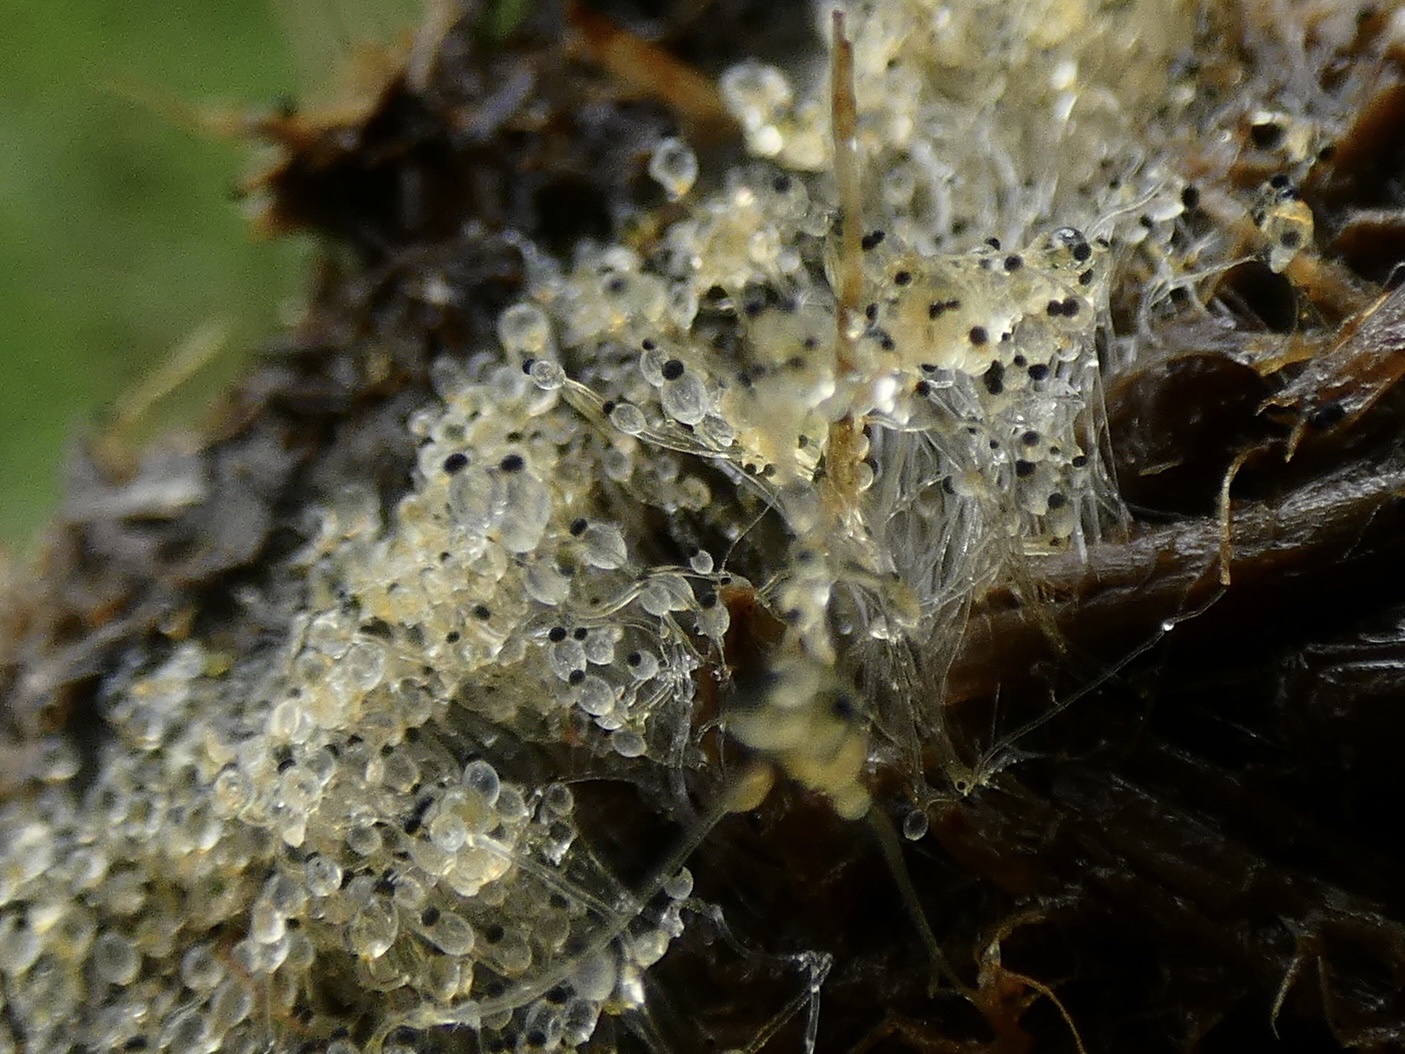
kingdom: Fungi
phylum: Mucoromycota
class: Mucoromycetes
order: Mucorales
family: Pilobolaceae
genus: Pilobolus
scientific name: Pilobolus
